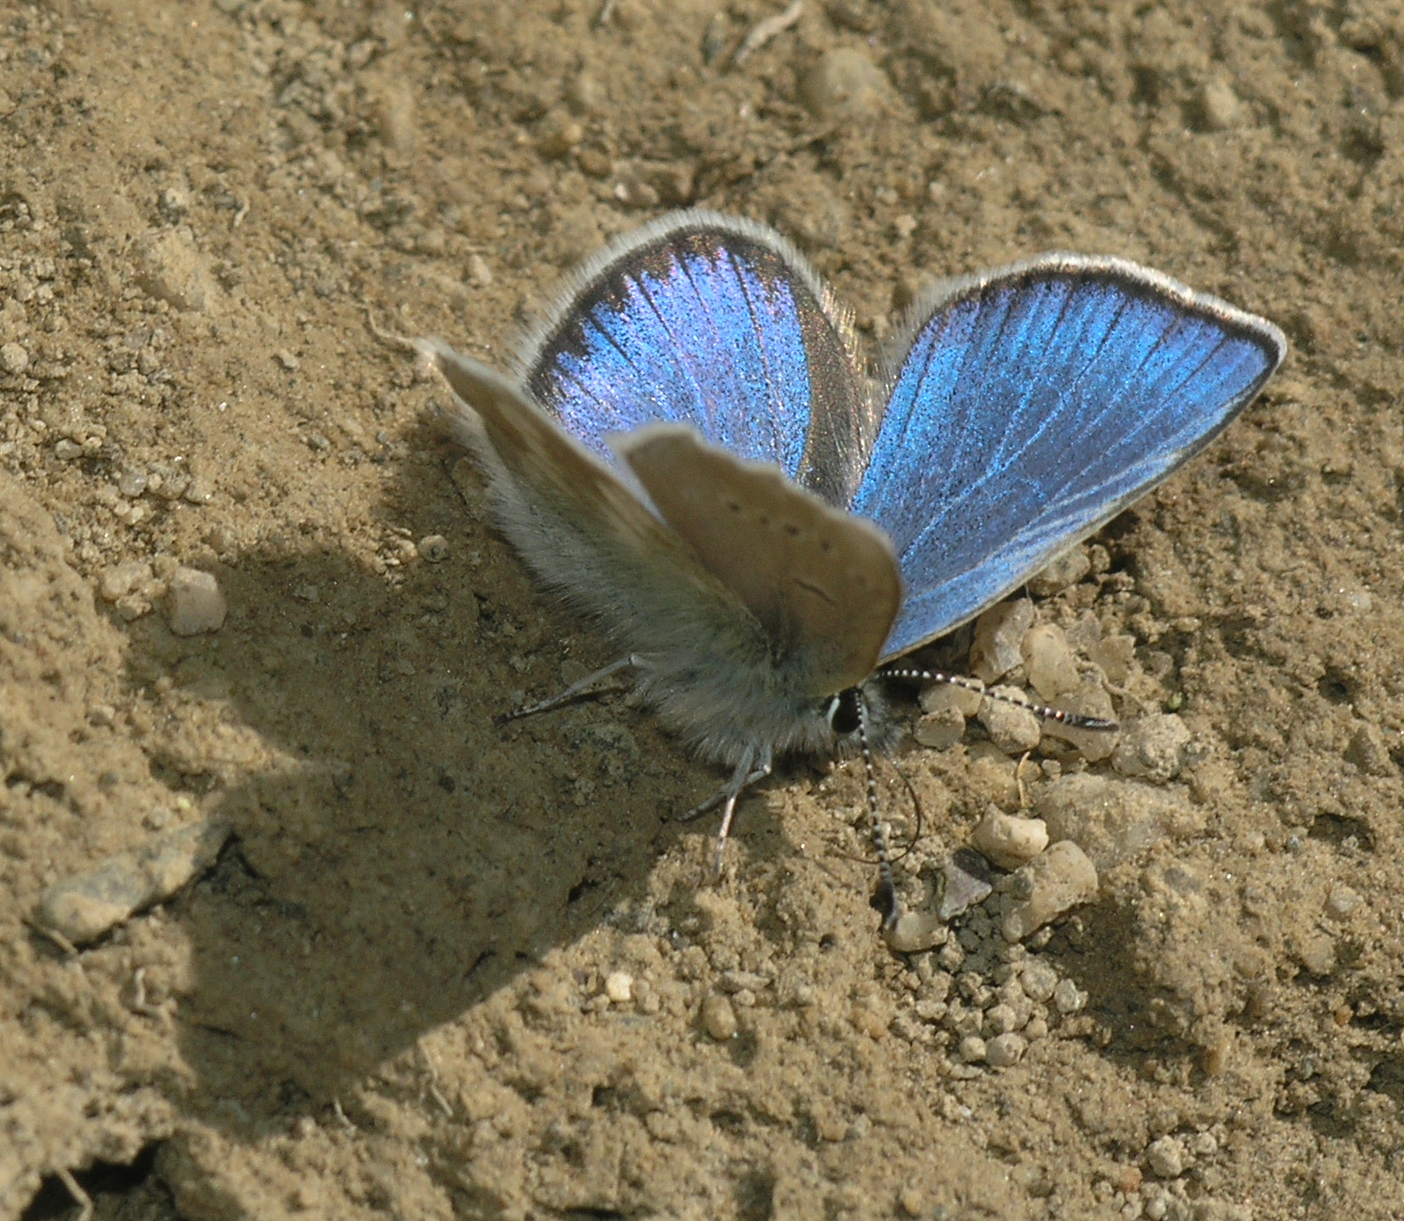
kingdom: Animalia
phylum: Arthropoda
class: Insecta
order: Lepidoptera
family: Lycaenidae
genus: Albulina
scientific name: Albulina orbitulus
